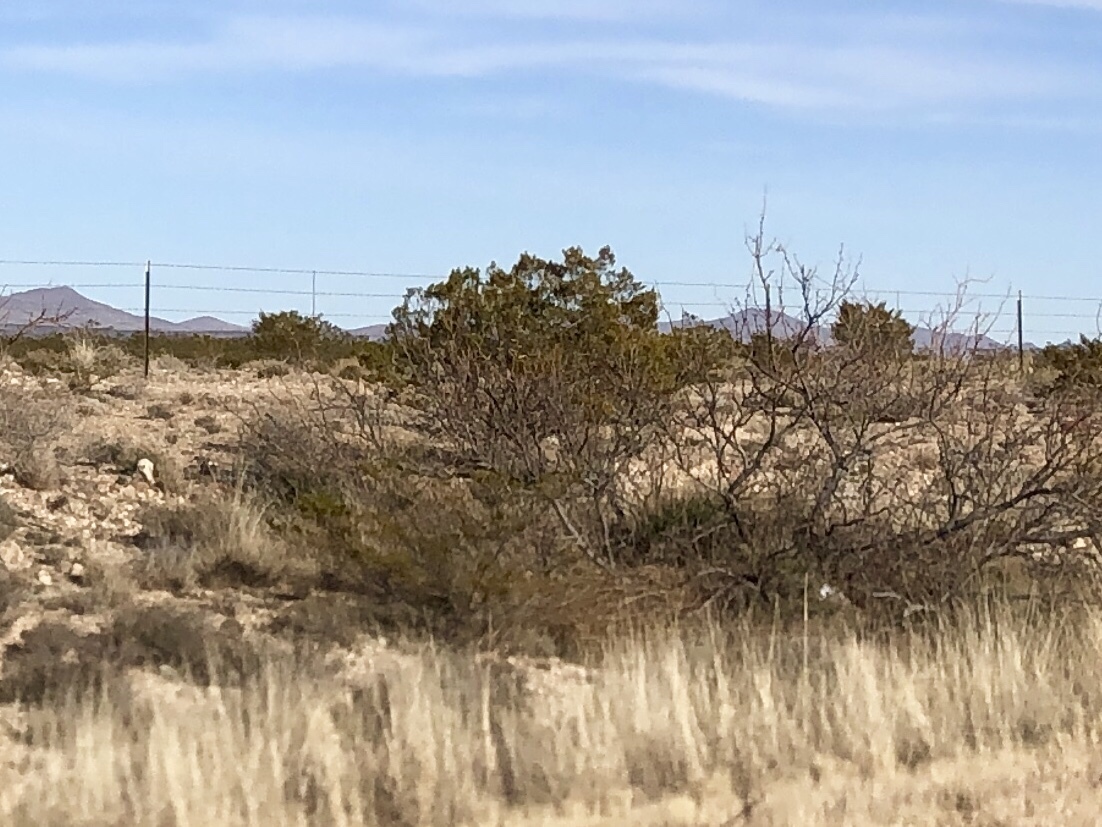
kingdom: Plantae
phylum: Tracheophyta
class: Magnoliopsida
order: Zygophyllales
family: Zygophyllaceae
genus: Larrea
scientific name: Larrea tridentata
